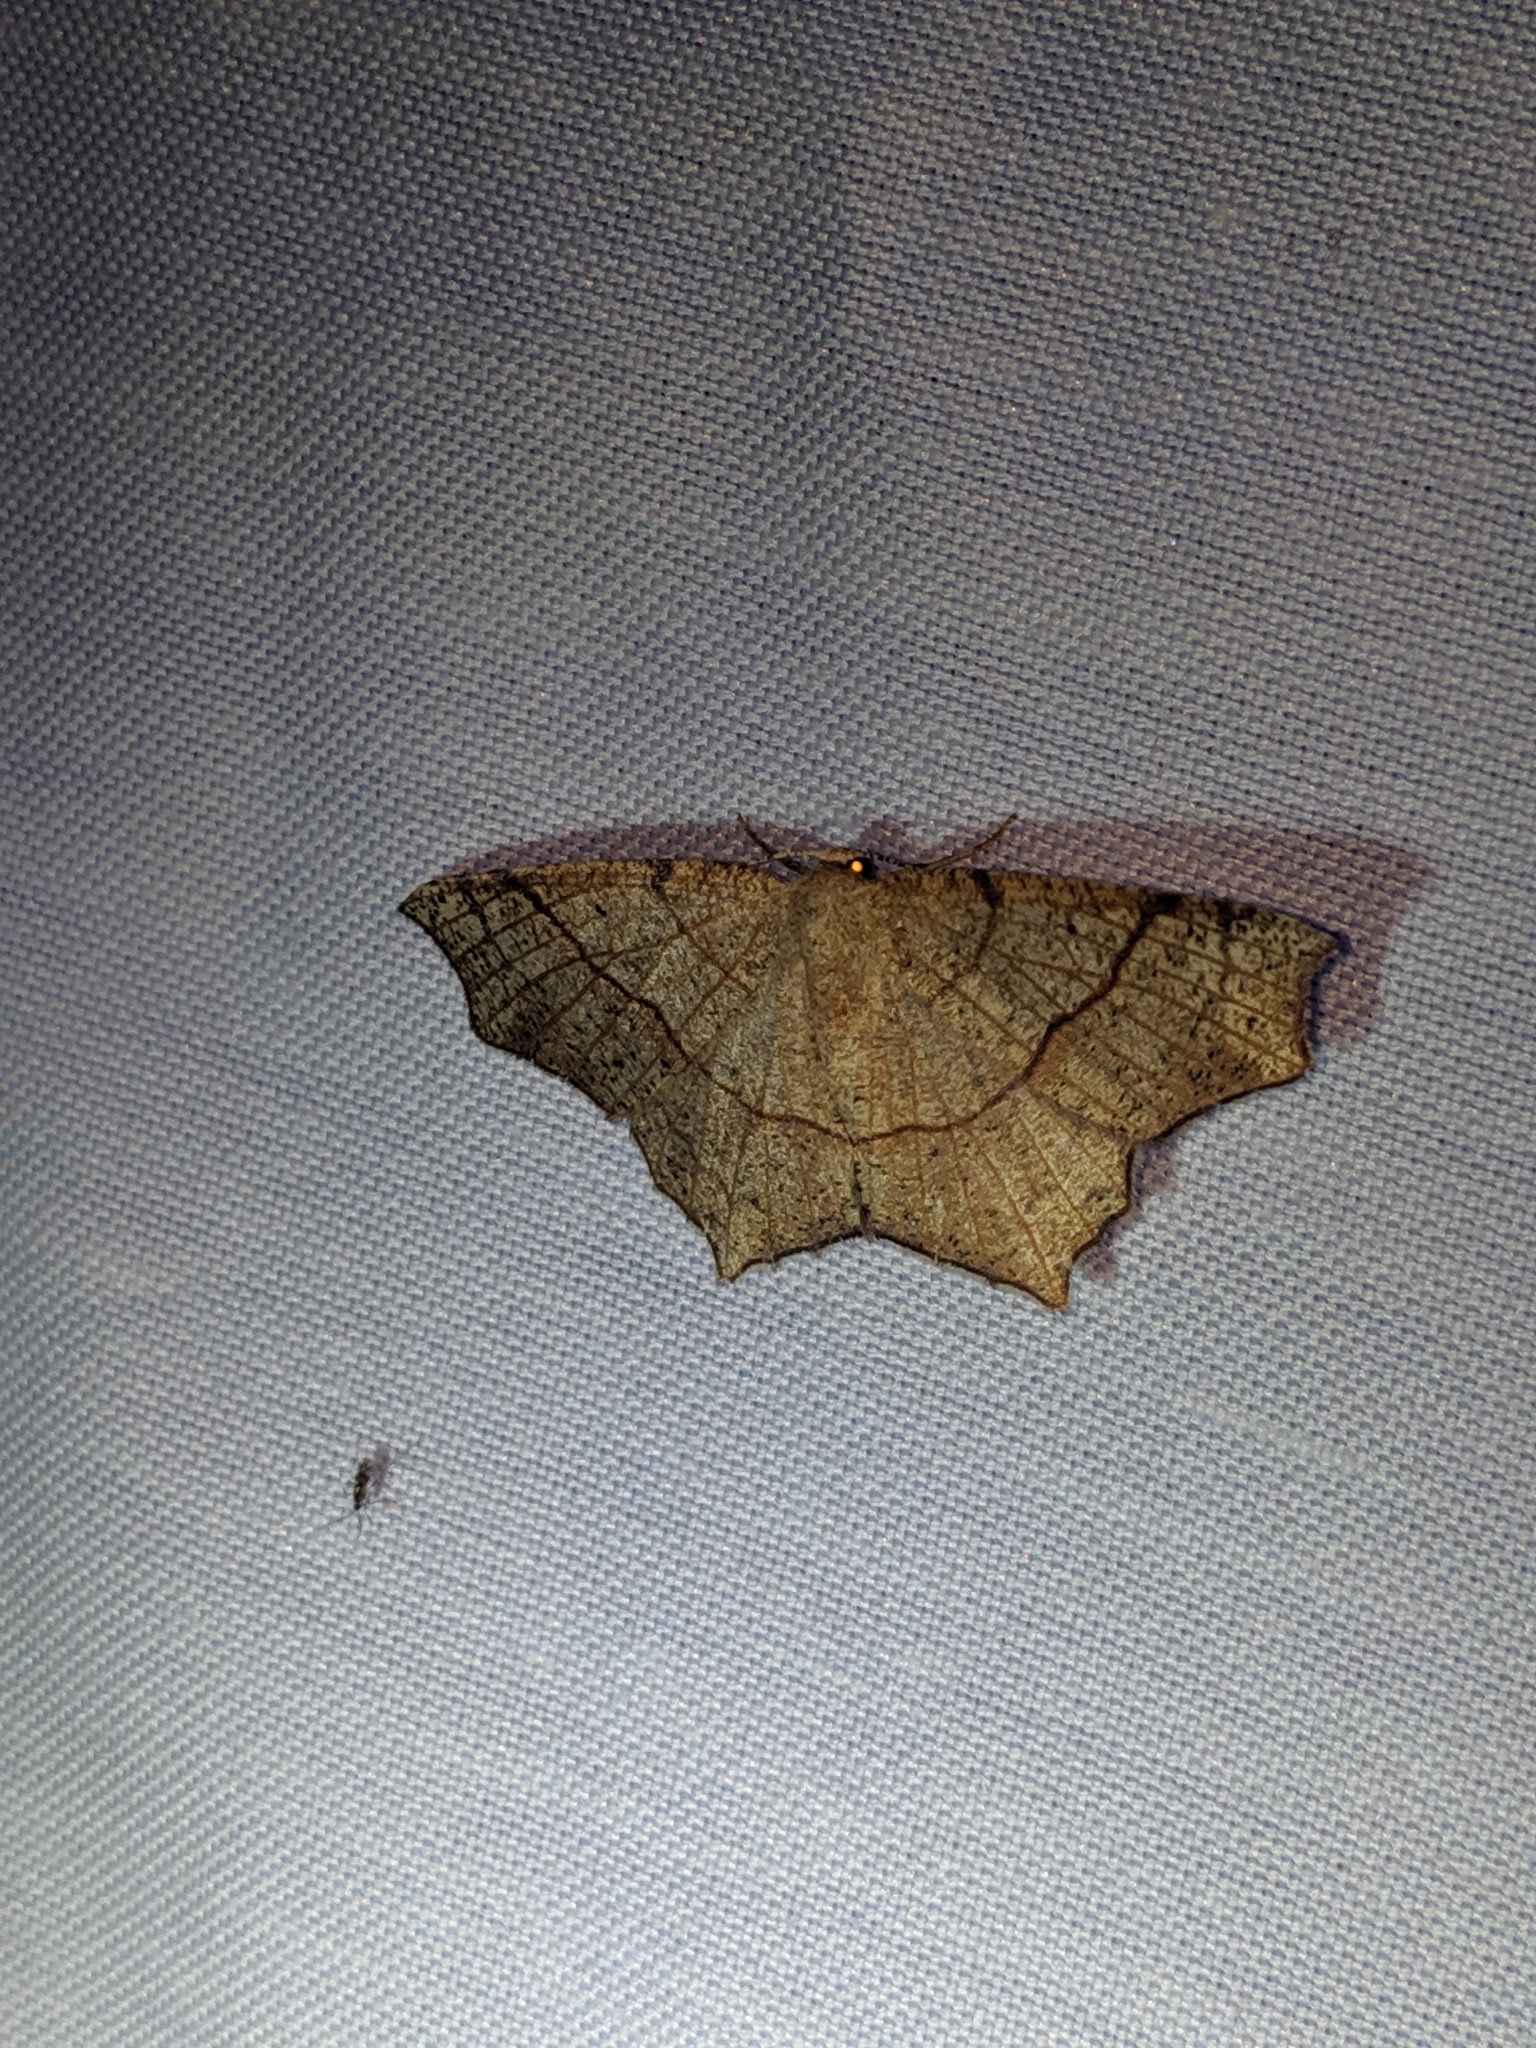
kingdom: Animalia
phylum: Arthropoda
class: Insecta
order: Lepidoptera
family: Geometridae
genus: Besma
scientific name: Besma quercivoraria
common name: Oak besma
